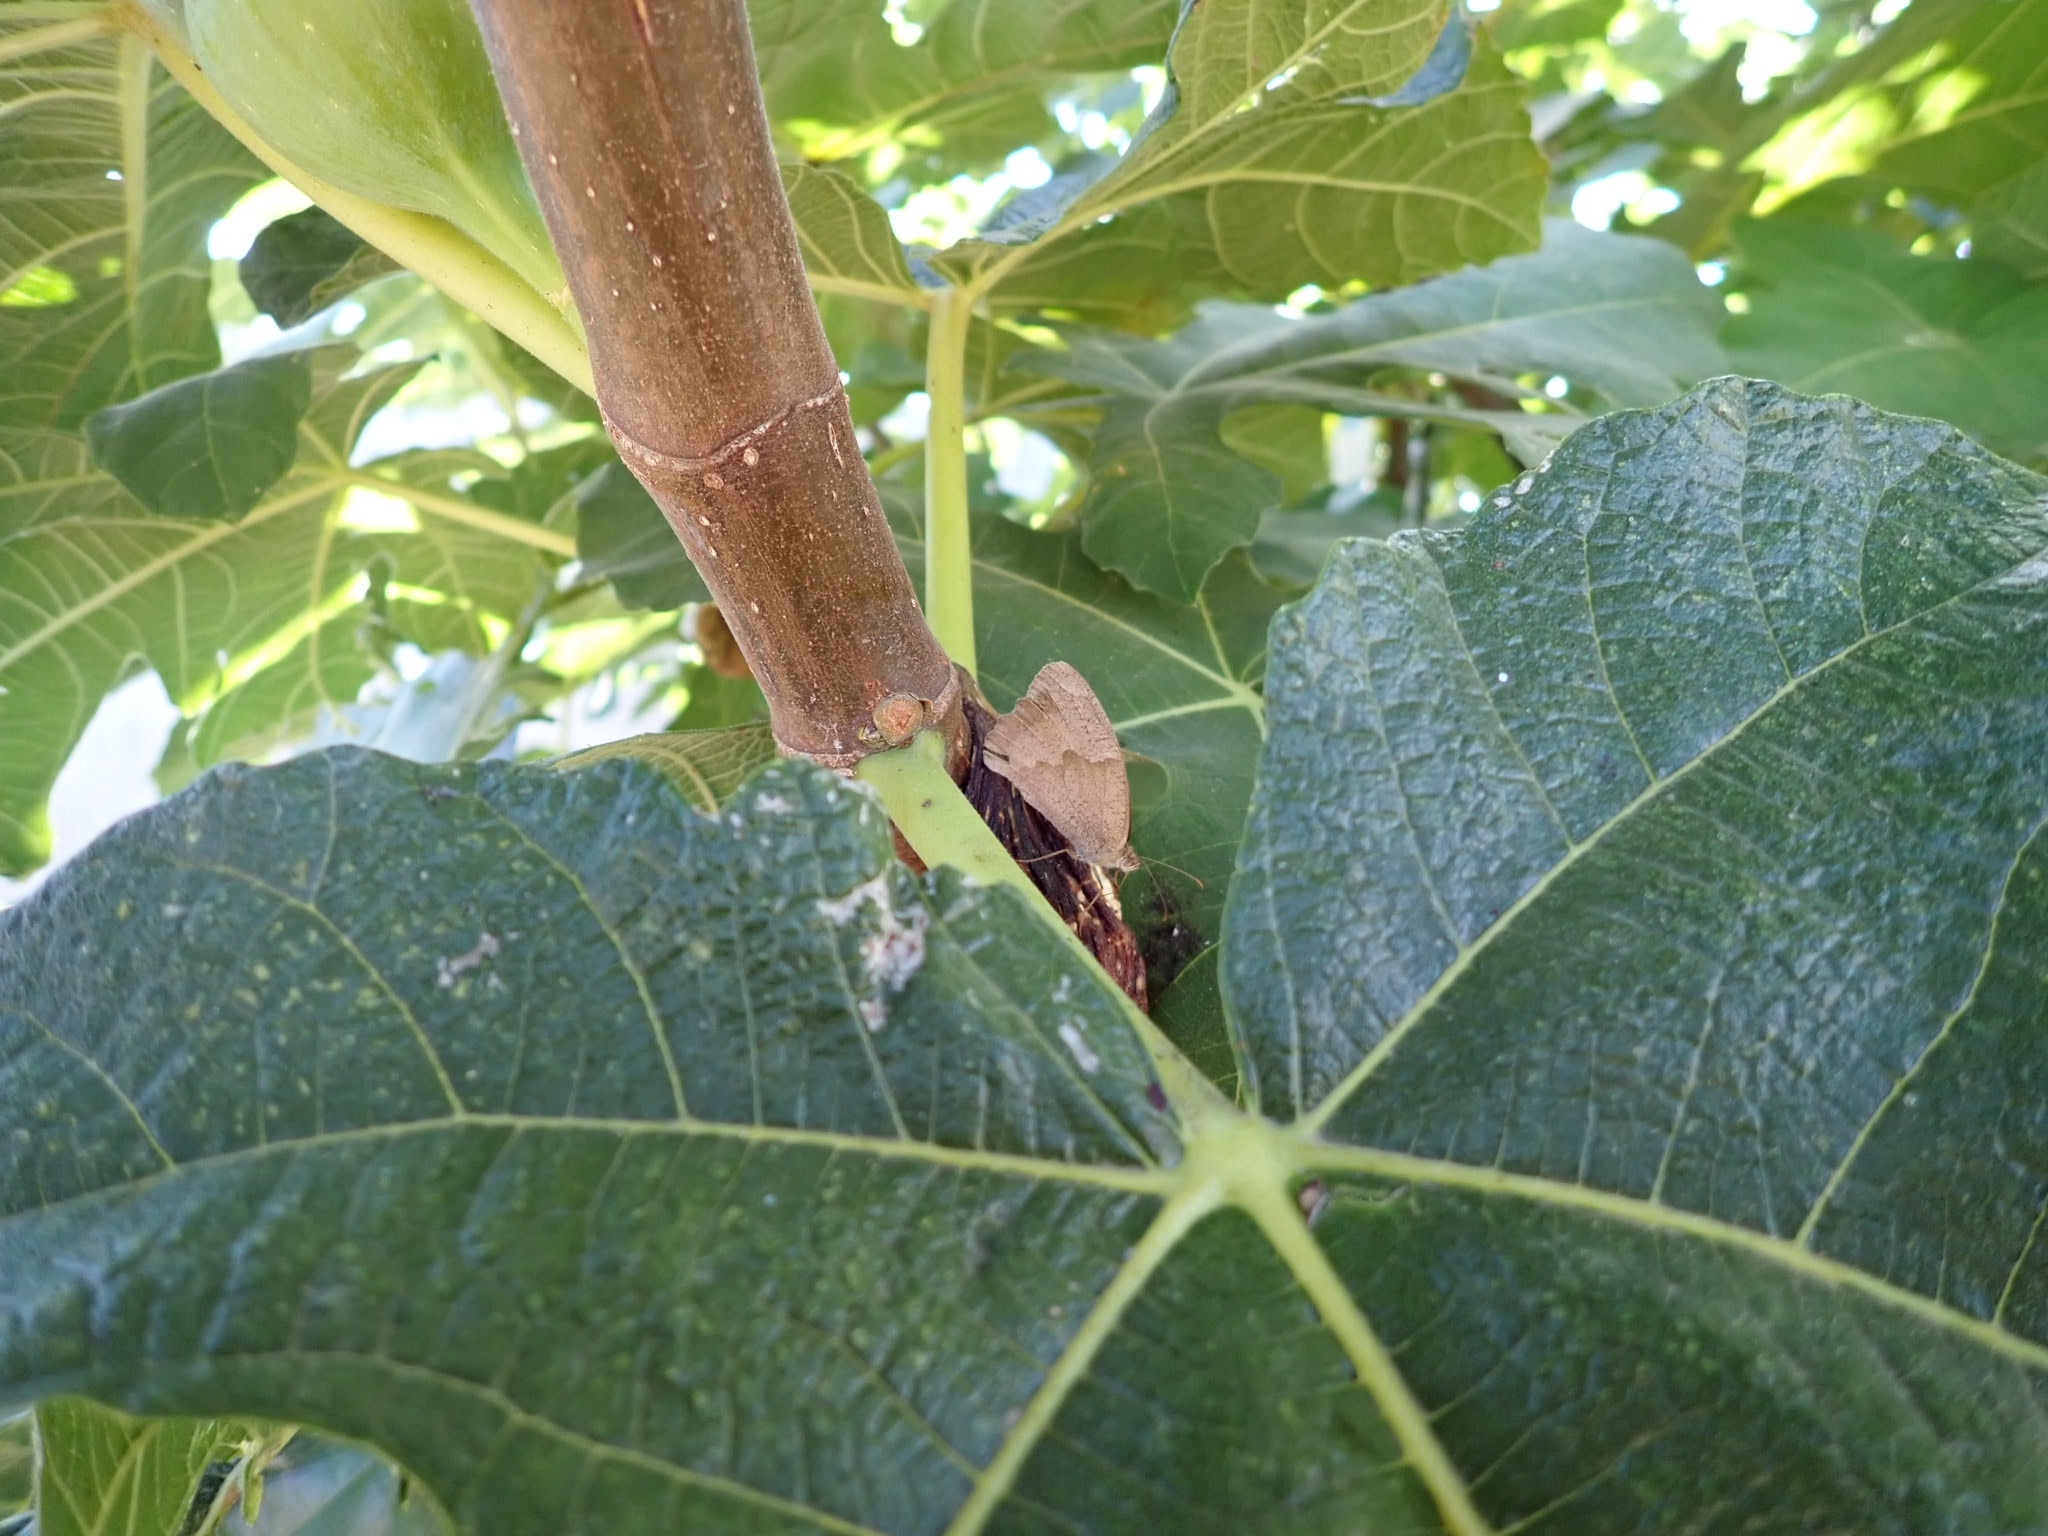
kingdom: Animalia
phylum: Arthropoda
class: Insecta
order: Lepidoptera
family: Nymphalidae
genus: Maniola
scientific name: Maniola jurtina
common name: Meadow brown
